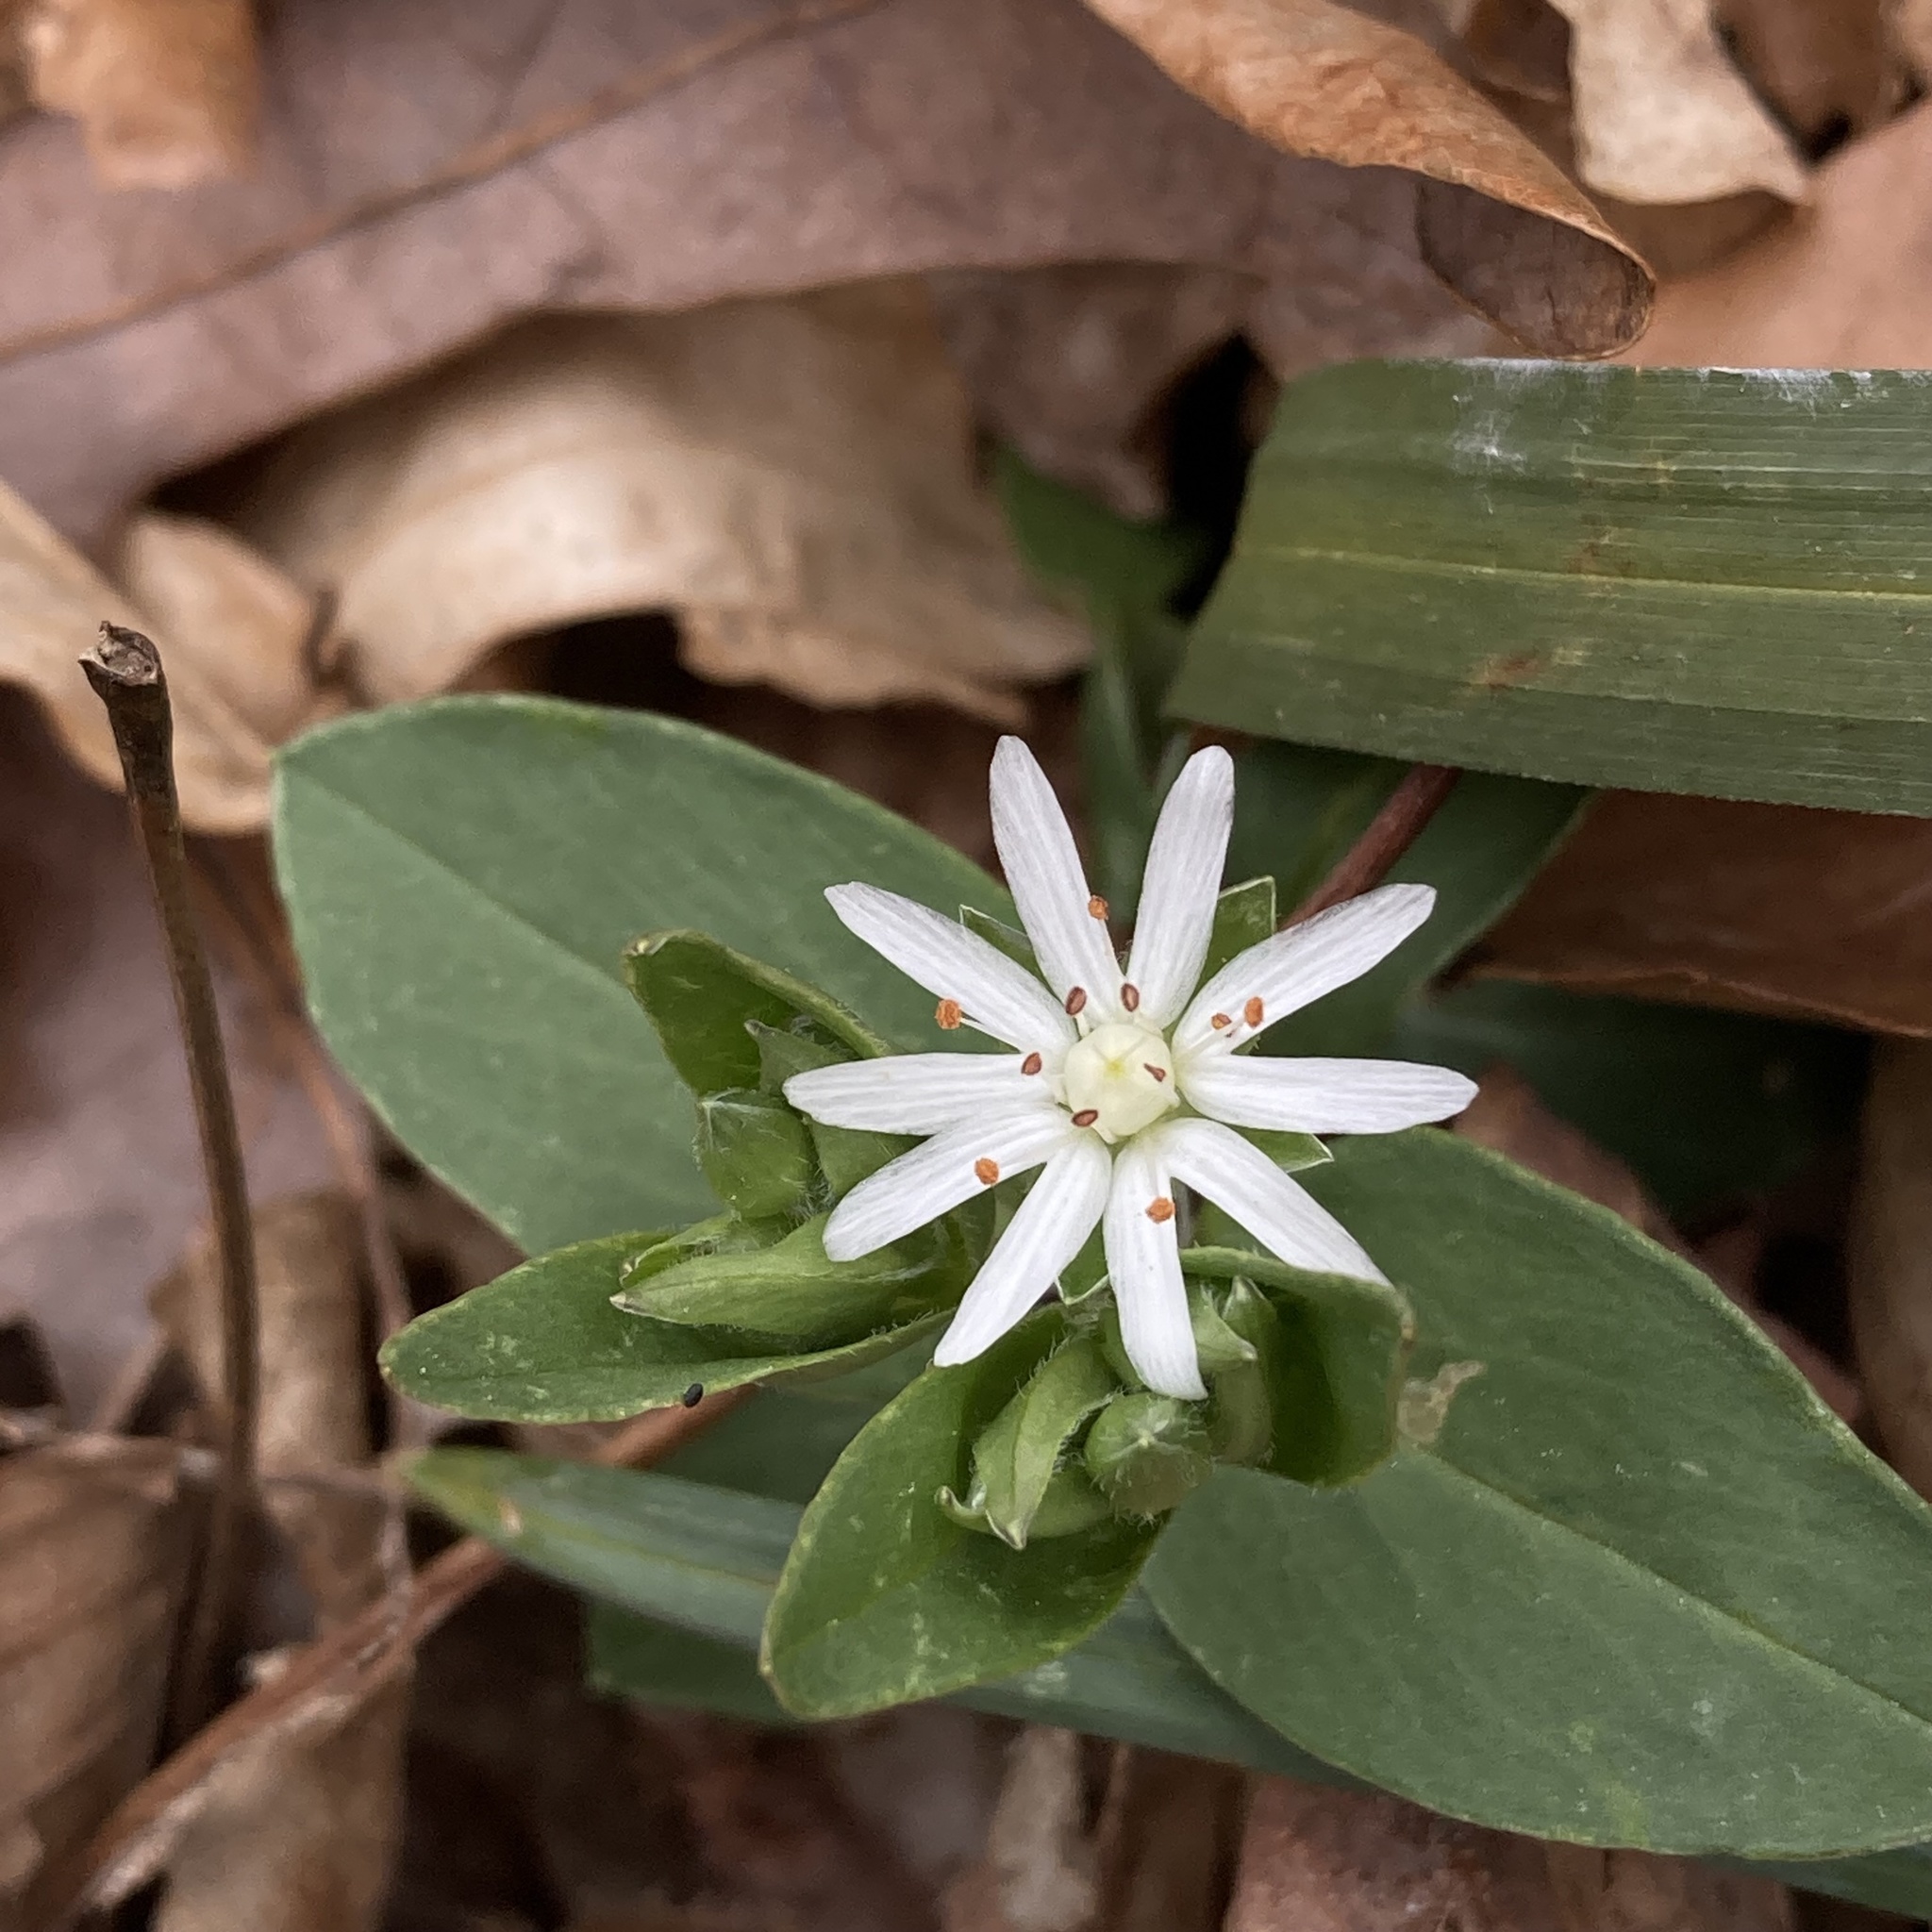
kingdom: Plantae
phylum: Tracheophyta
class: Magnoliopsida
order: Caryophyllales
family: Caryophyllaceae
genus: Stellaria
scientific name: Stellaria pubera
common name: Star chickweed
